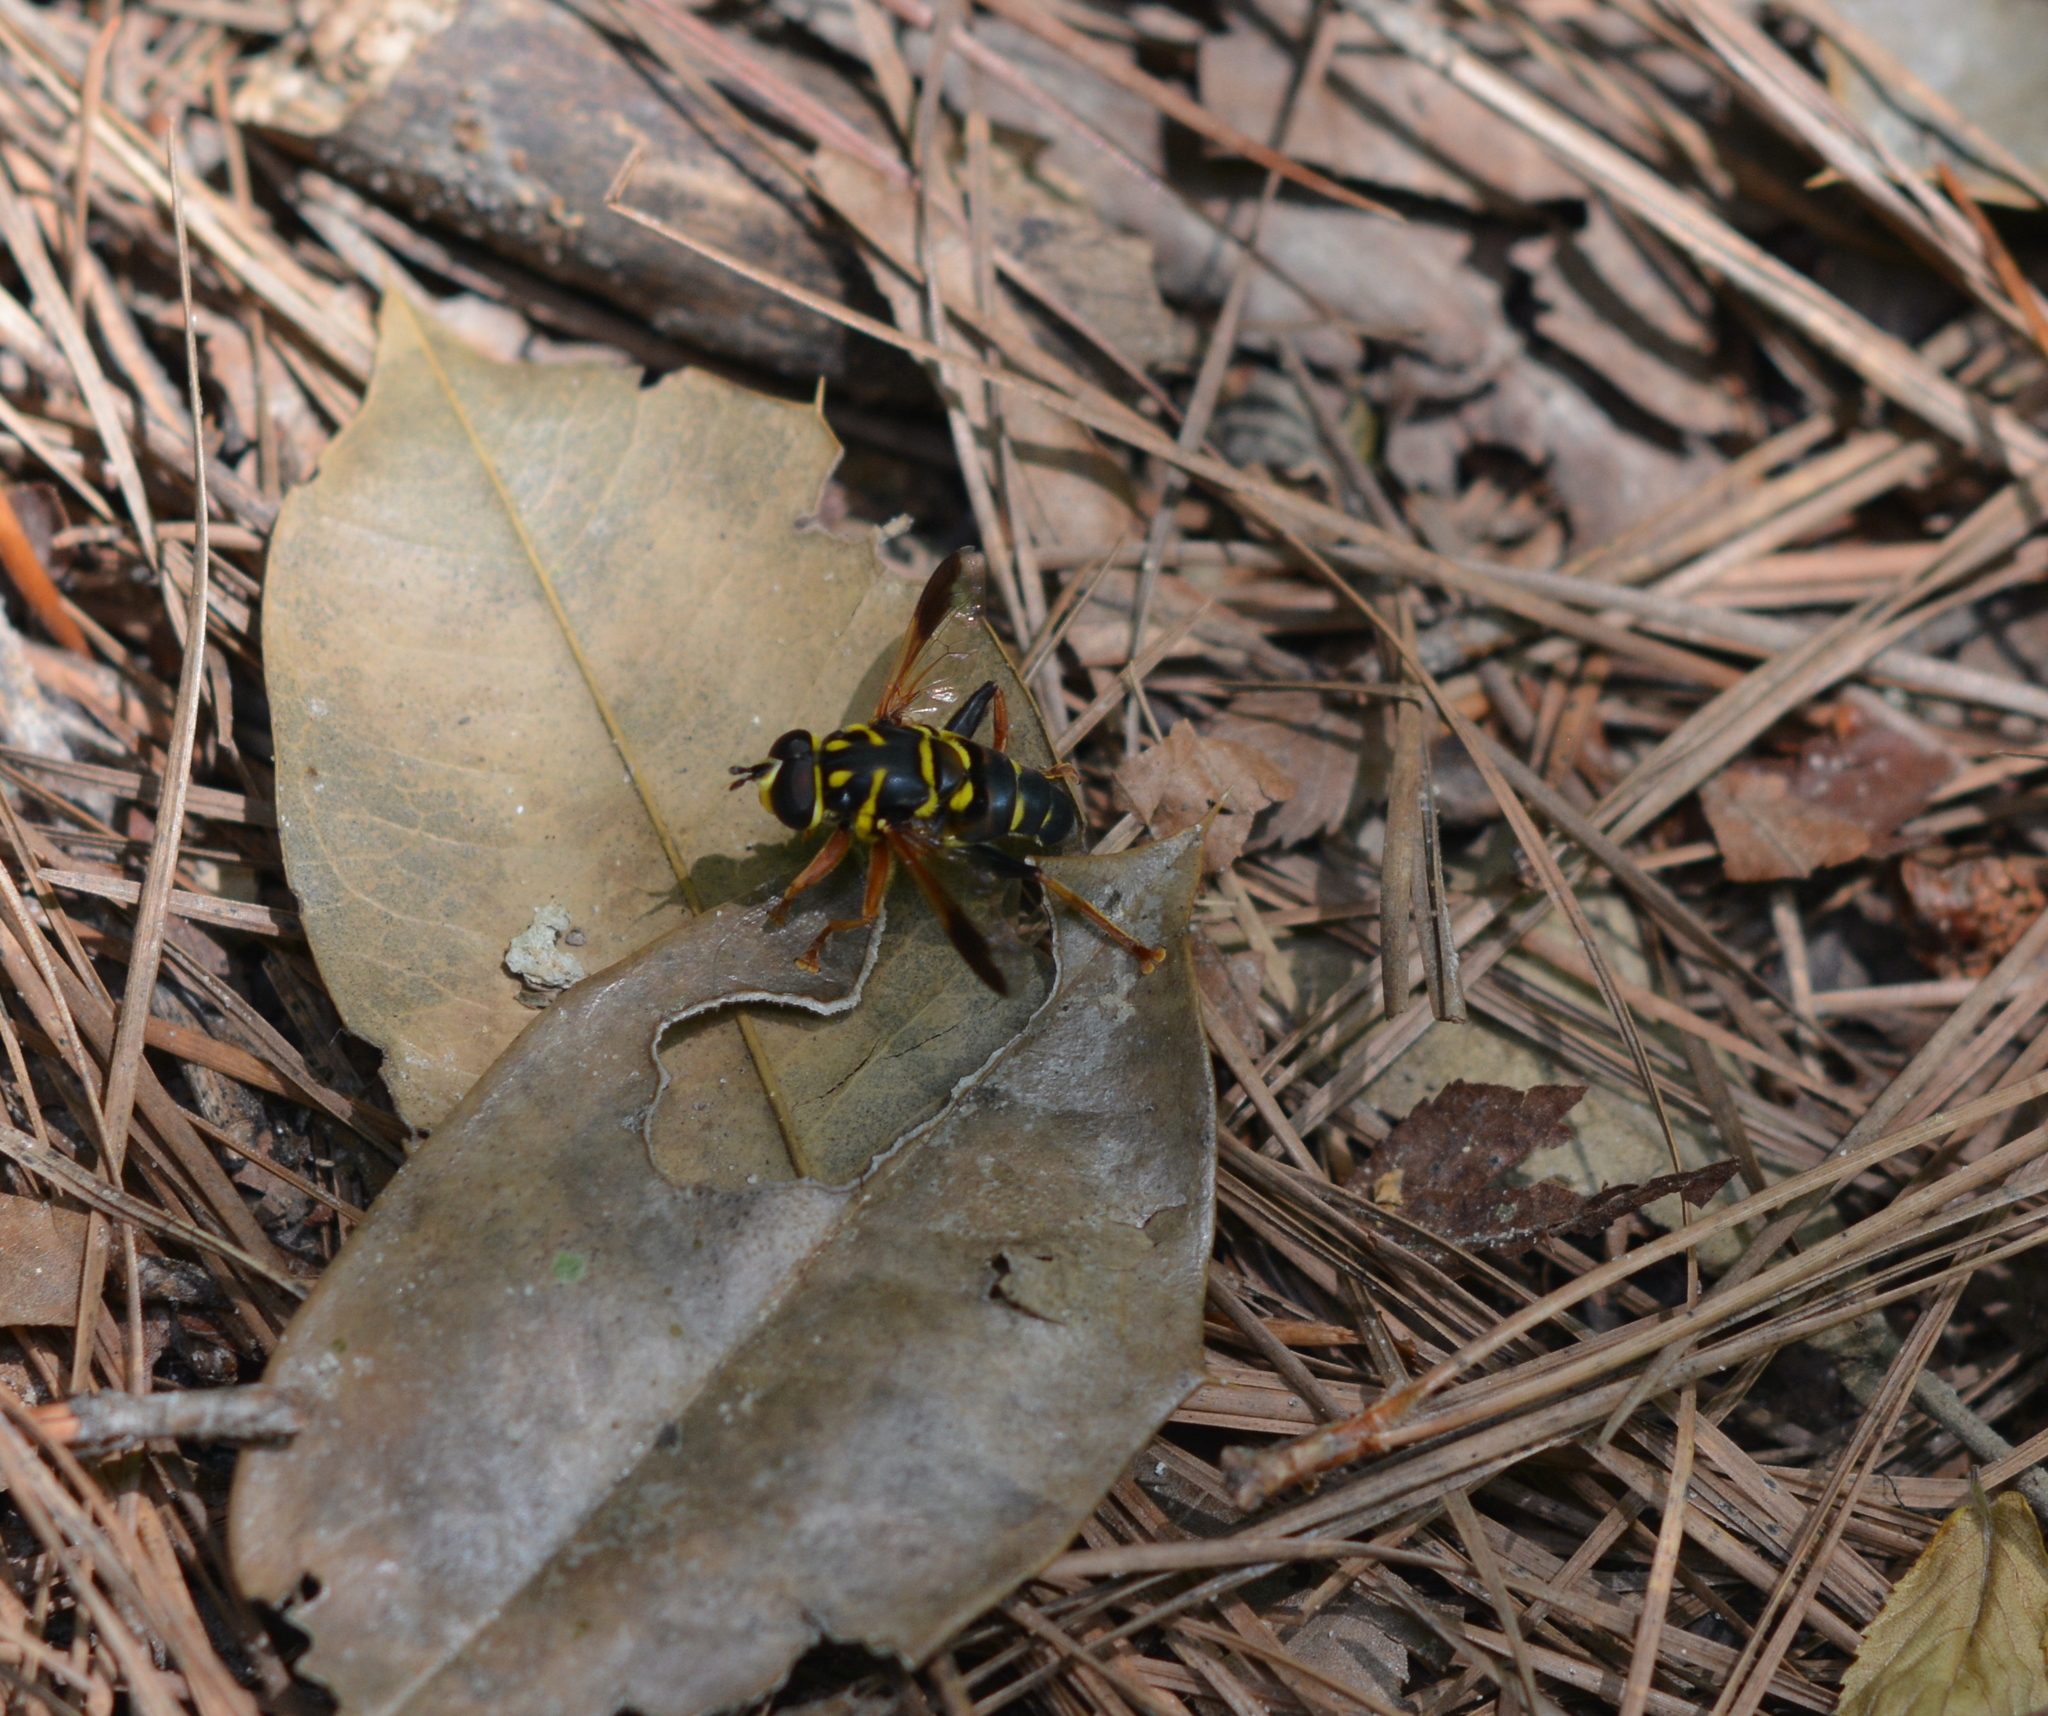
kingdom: Animalia
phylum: Arthropoda
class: Insecta
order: Diptera
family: Syrphidae
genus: Meromacrus
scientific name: Meromacrus acutus
